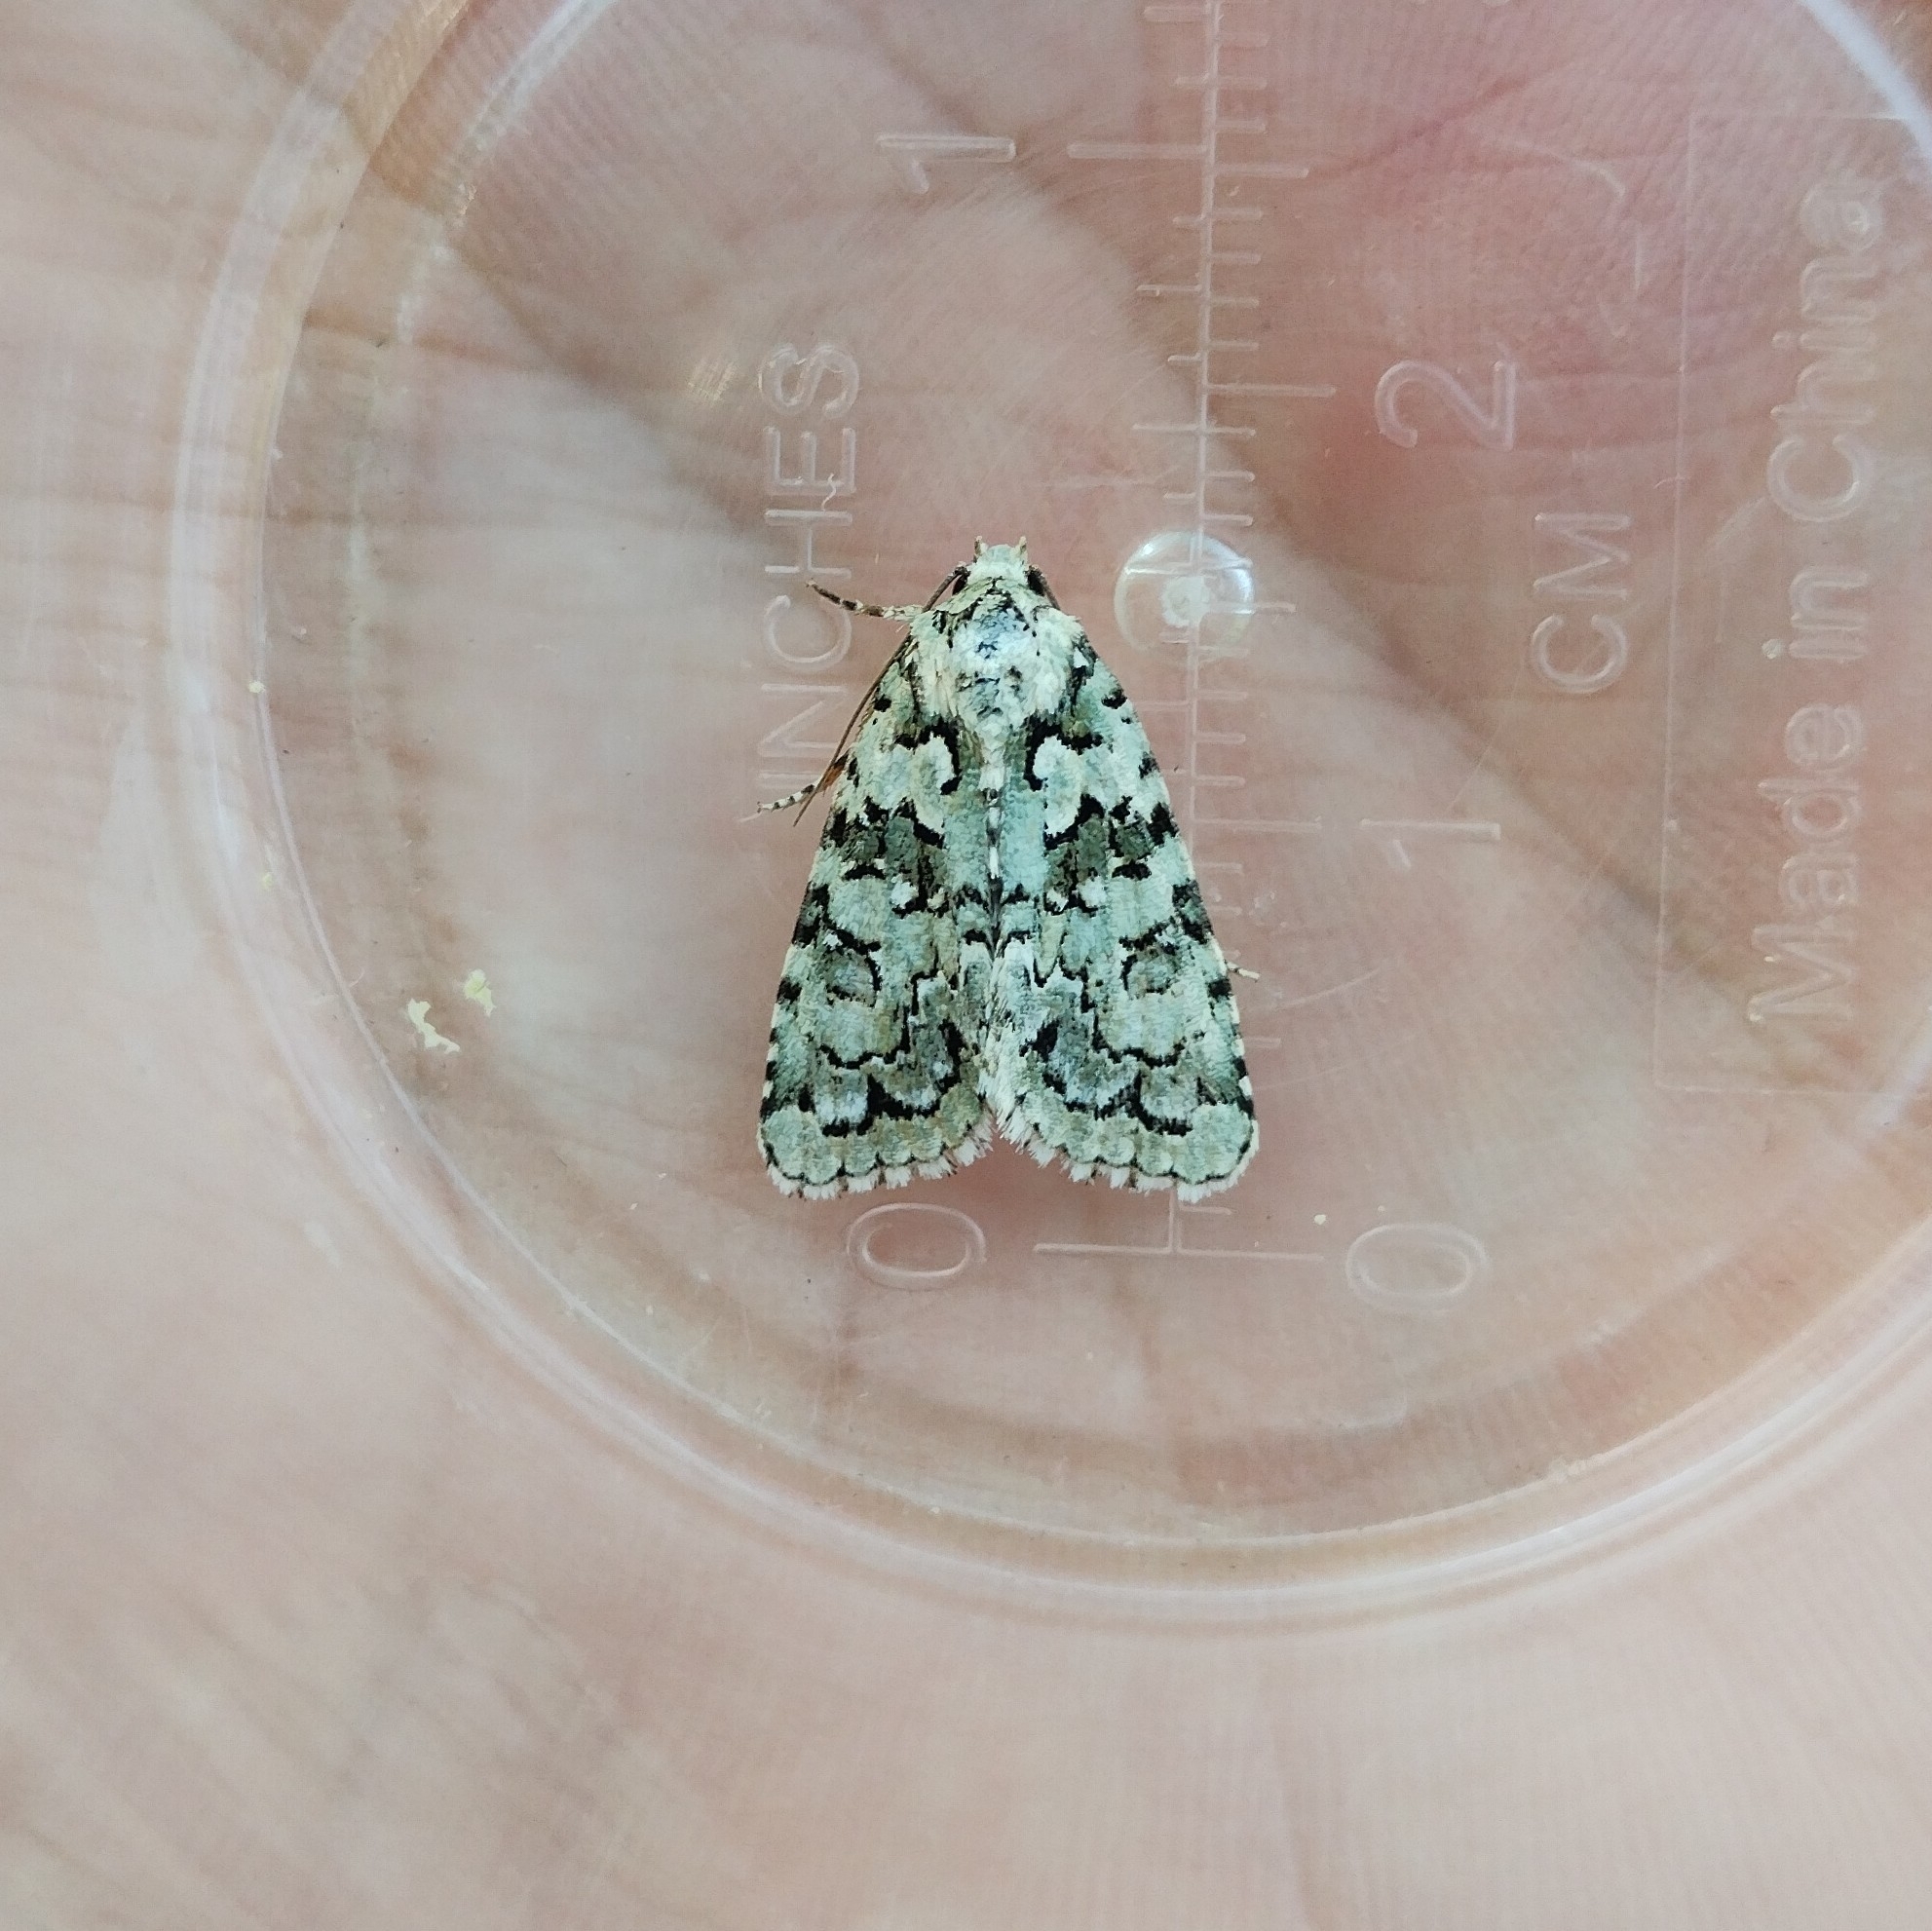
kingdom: Plantae
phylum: Chlorophyta
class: Ulvophyceae
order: Bryopsidales
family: Bryopsidaceae
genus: Bryopsis
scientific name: Bryopsis
